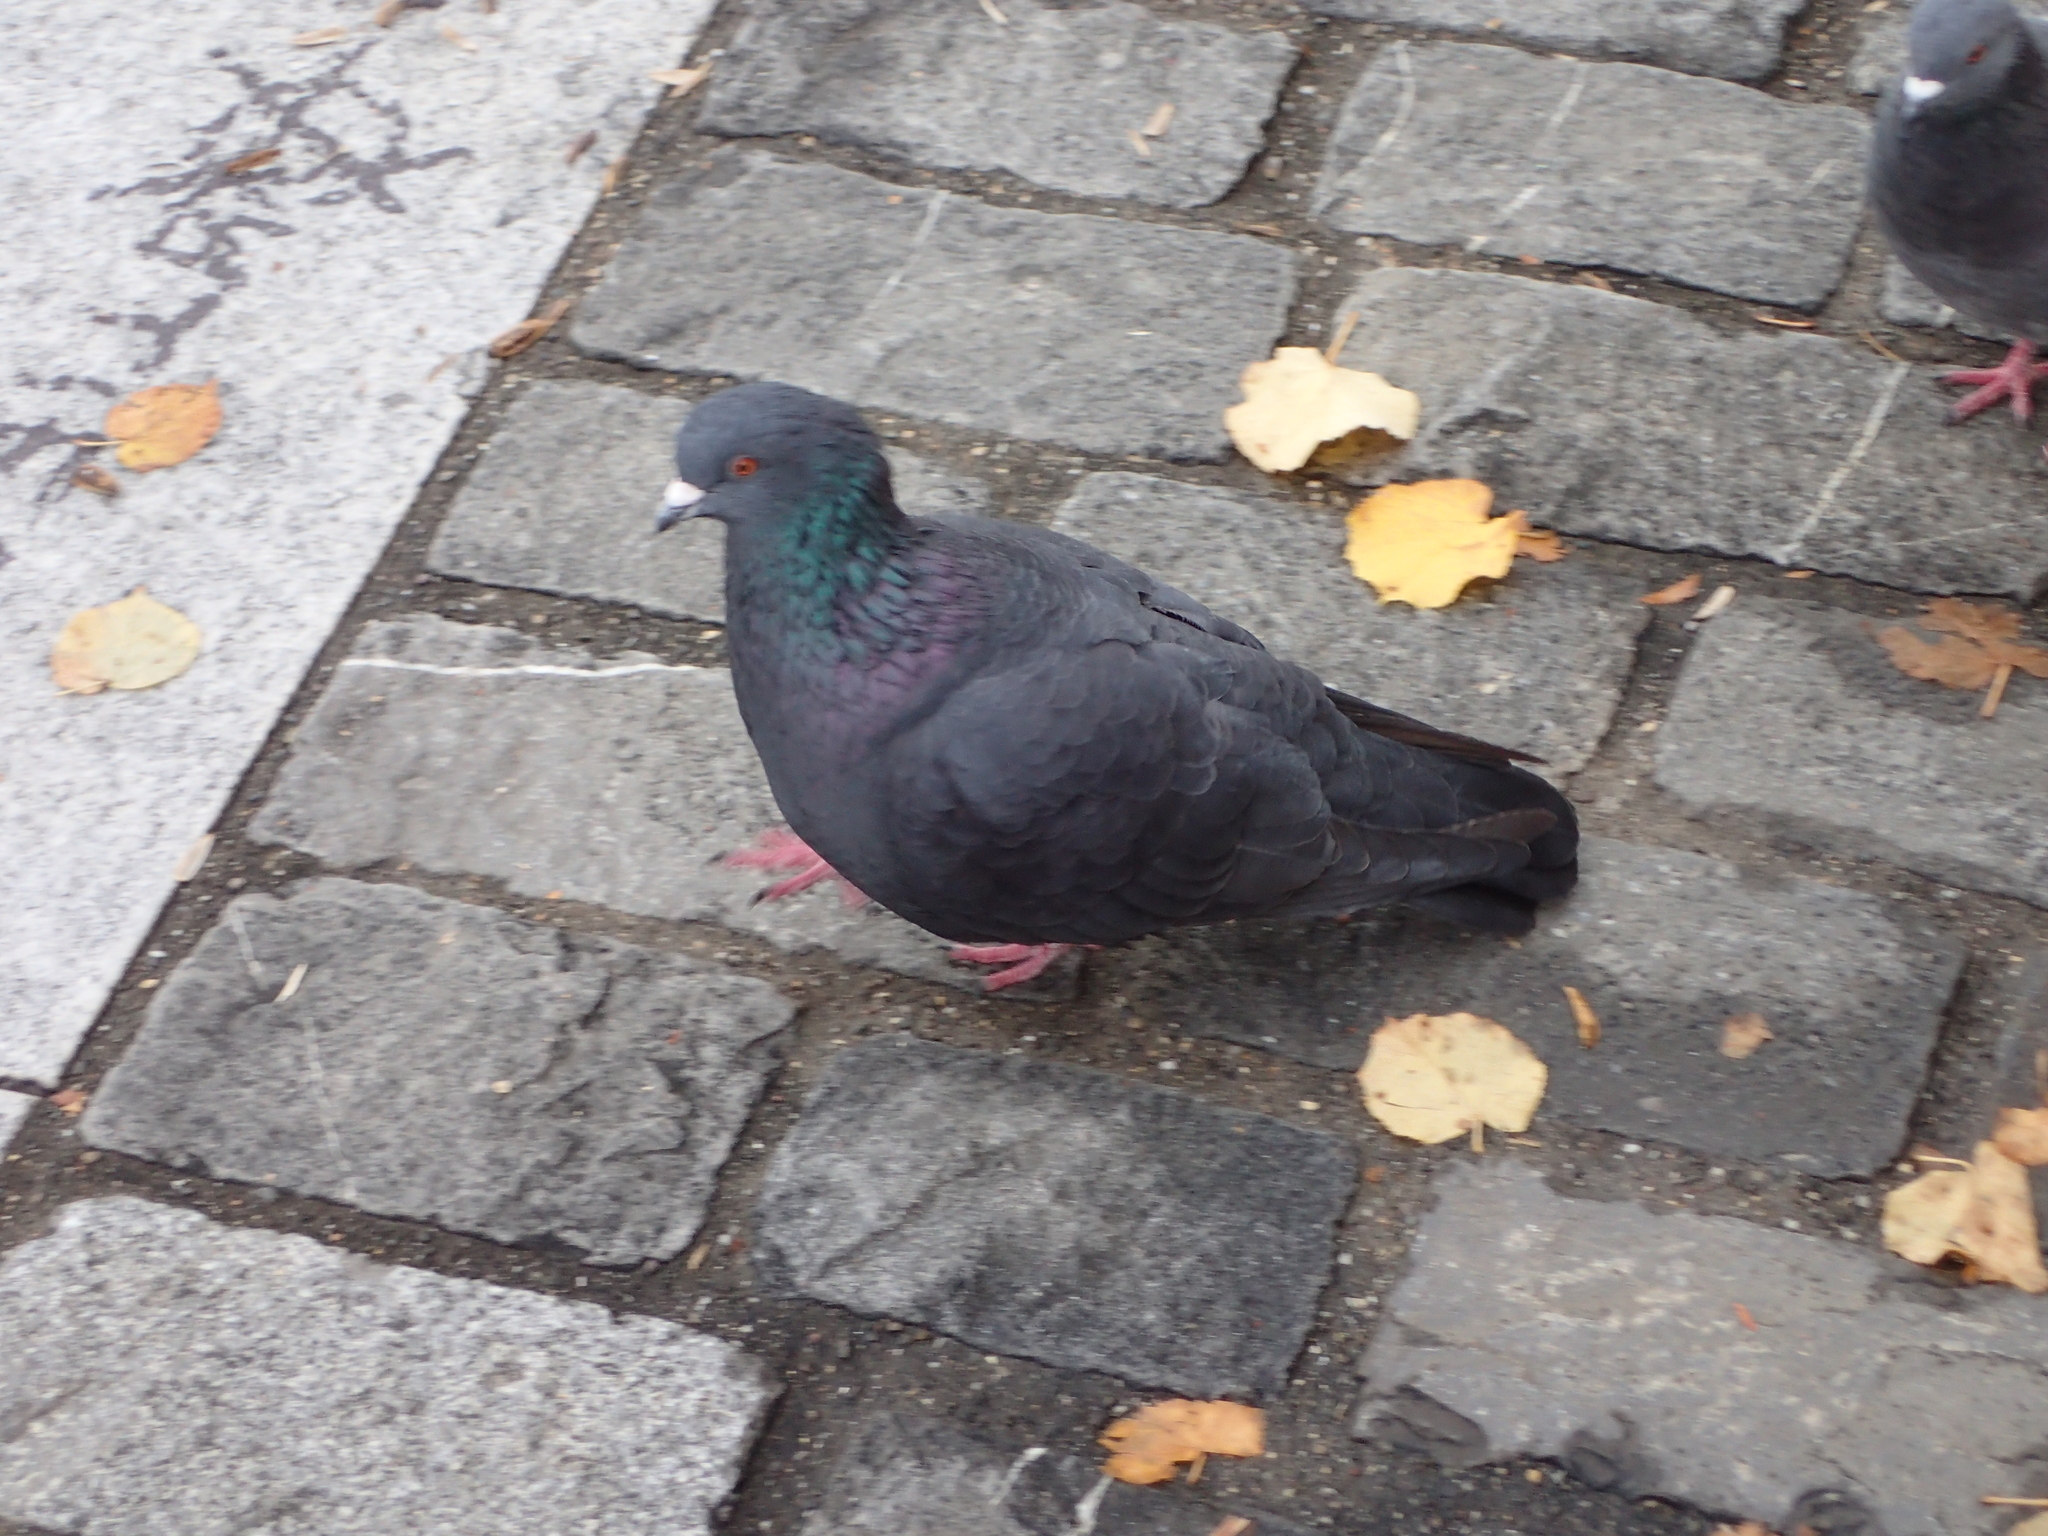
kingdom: Animalia
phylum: Chordata
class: Aves
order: Columbiformes
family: Columbidae
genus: Columba
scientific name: Columba livia
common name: Rock pigeon
